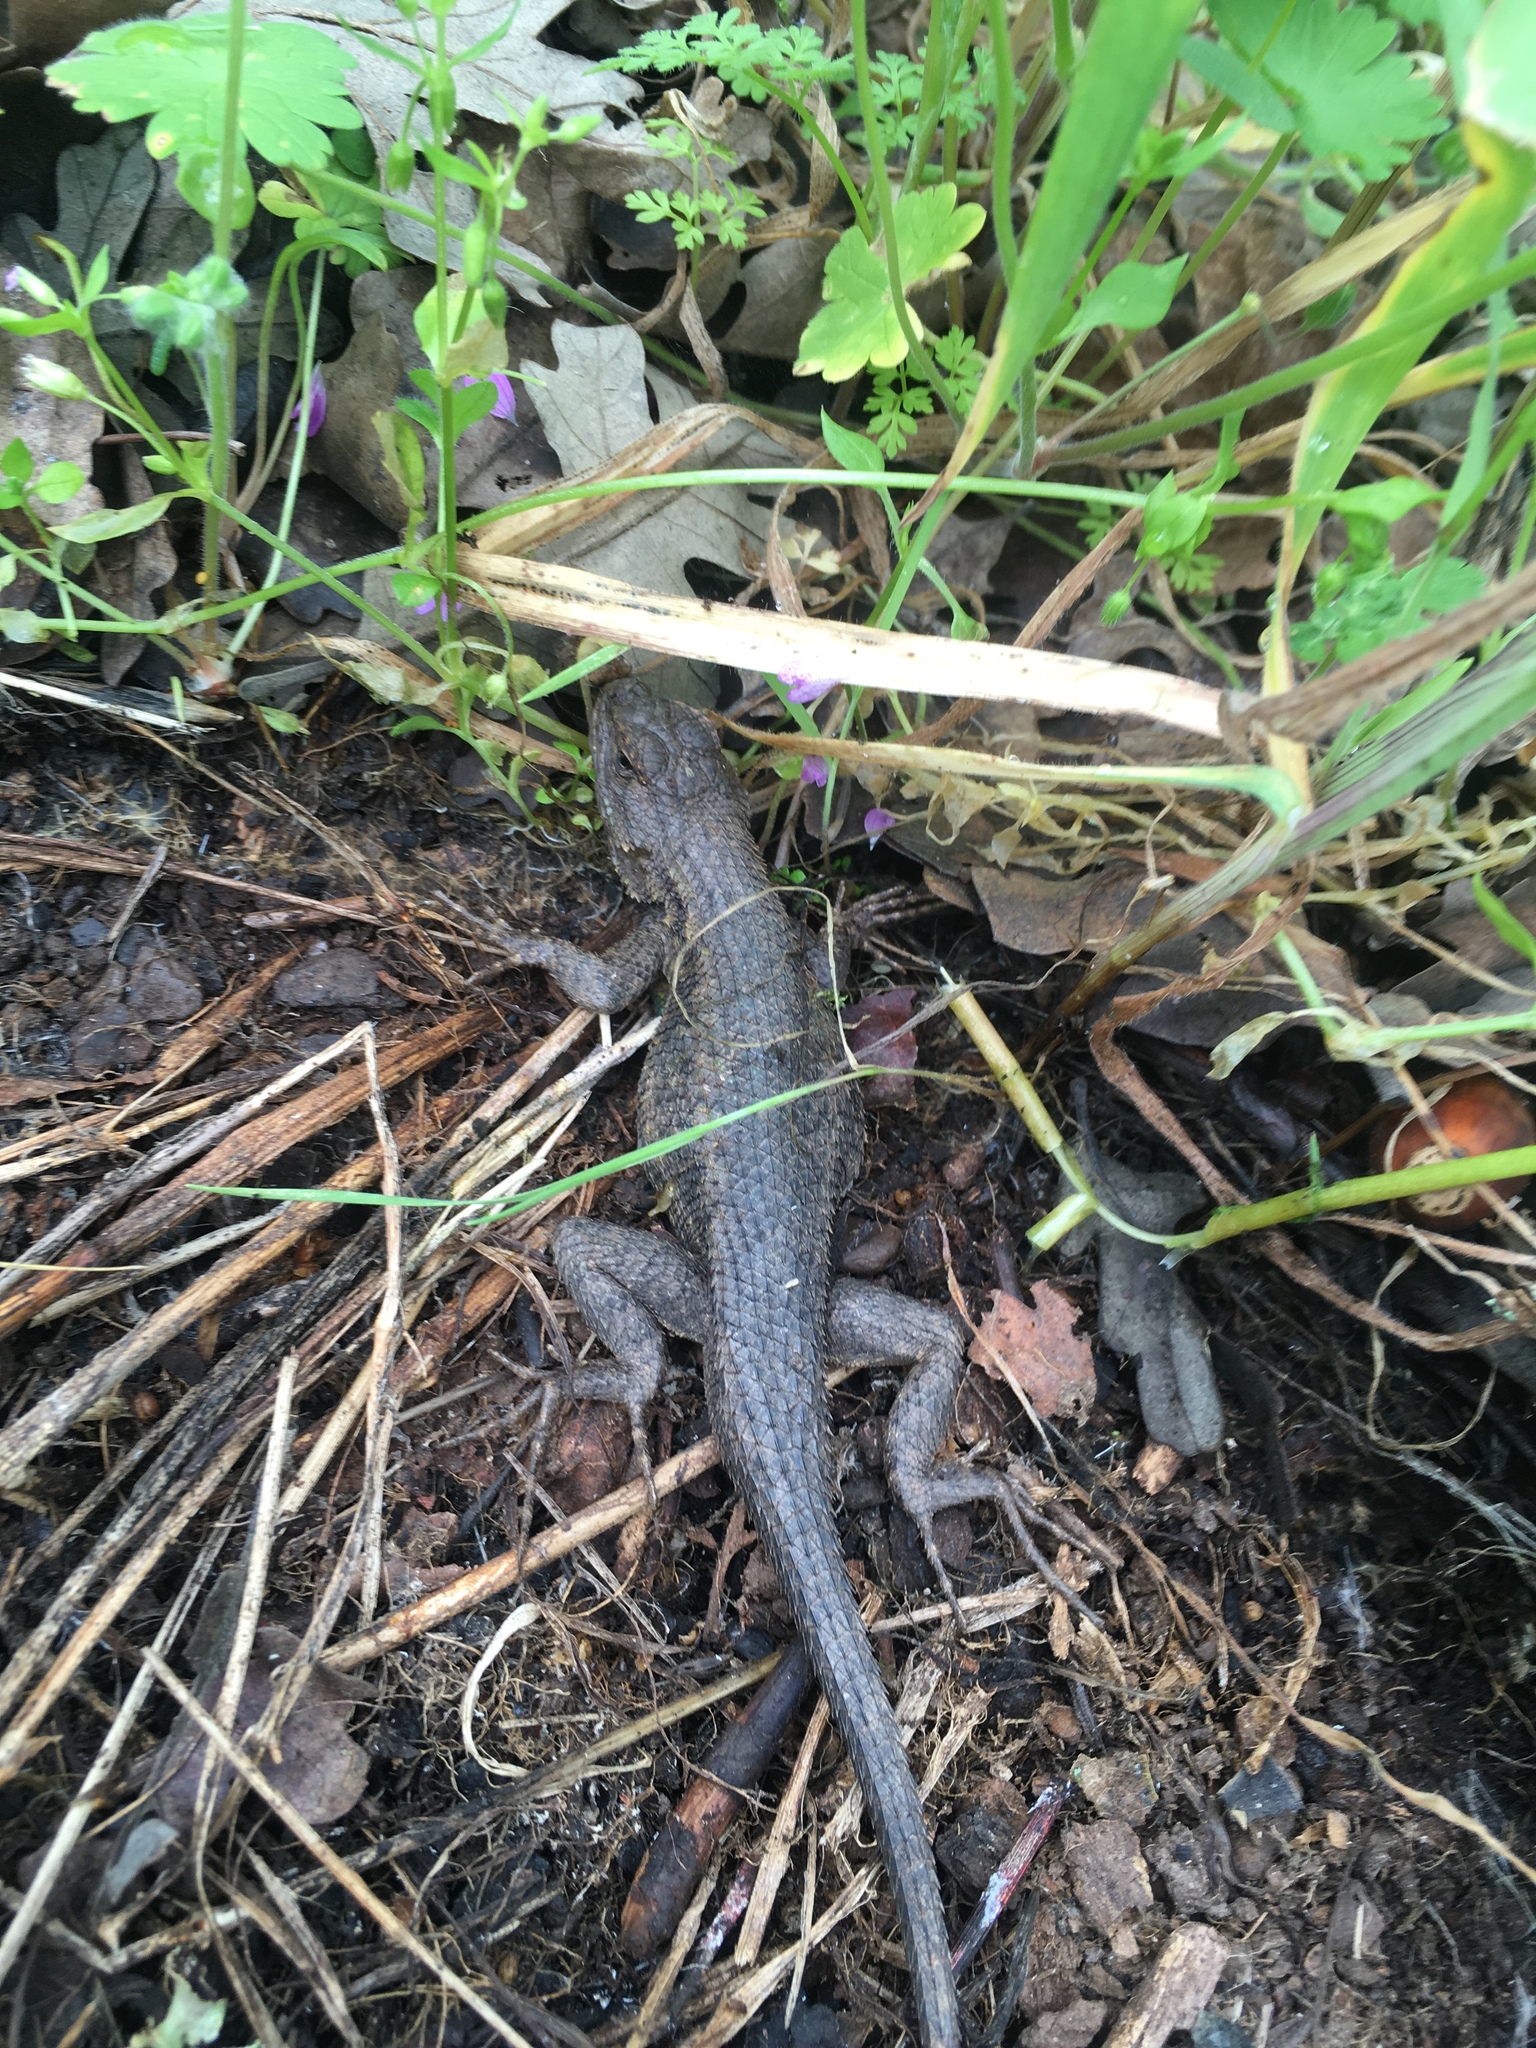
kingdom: Animalia
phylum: Chordata
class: Squamata
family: Phrynosomatidae
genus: Sceloporus
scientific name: Sceloporus occidentalis
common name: Western fence lizard
